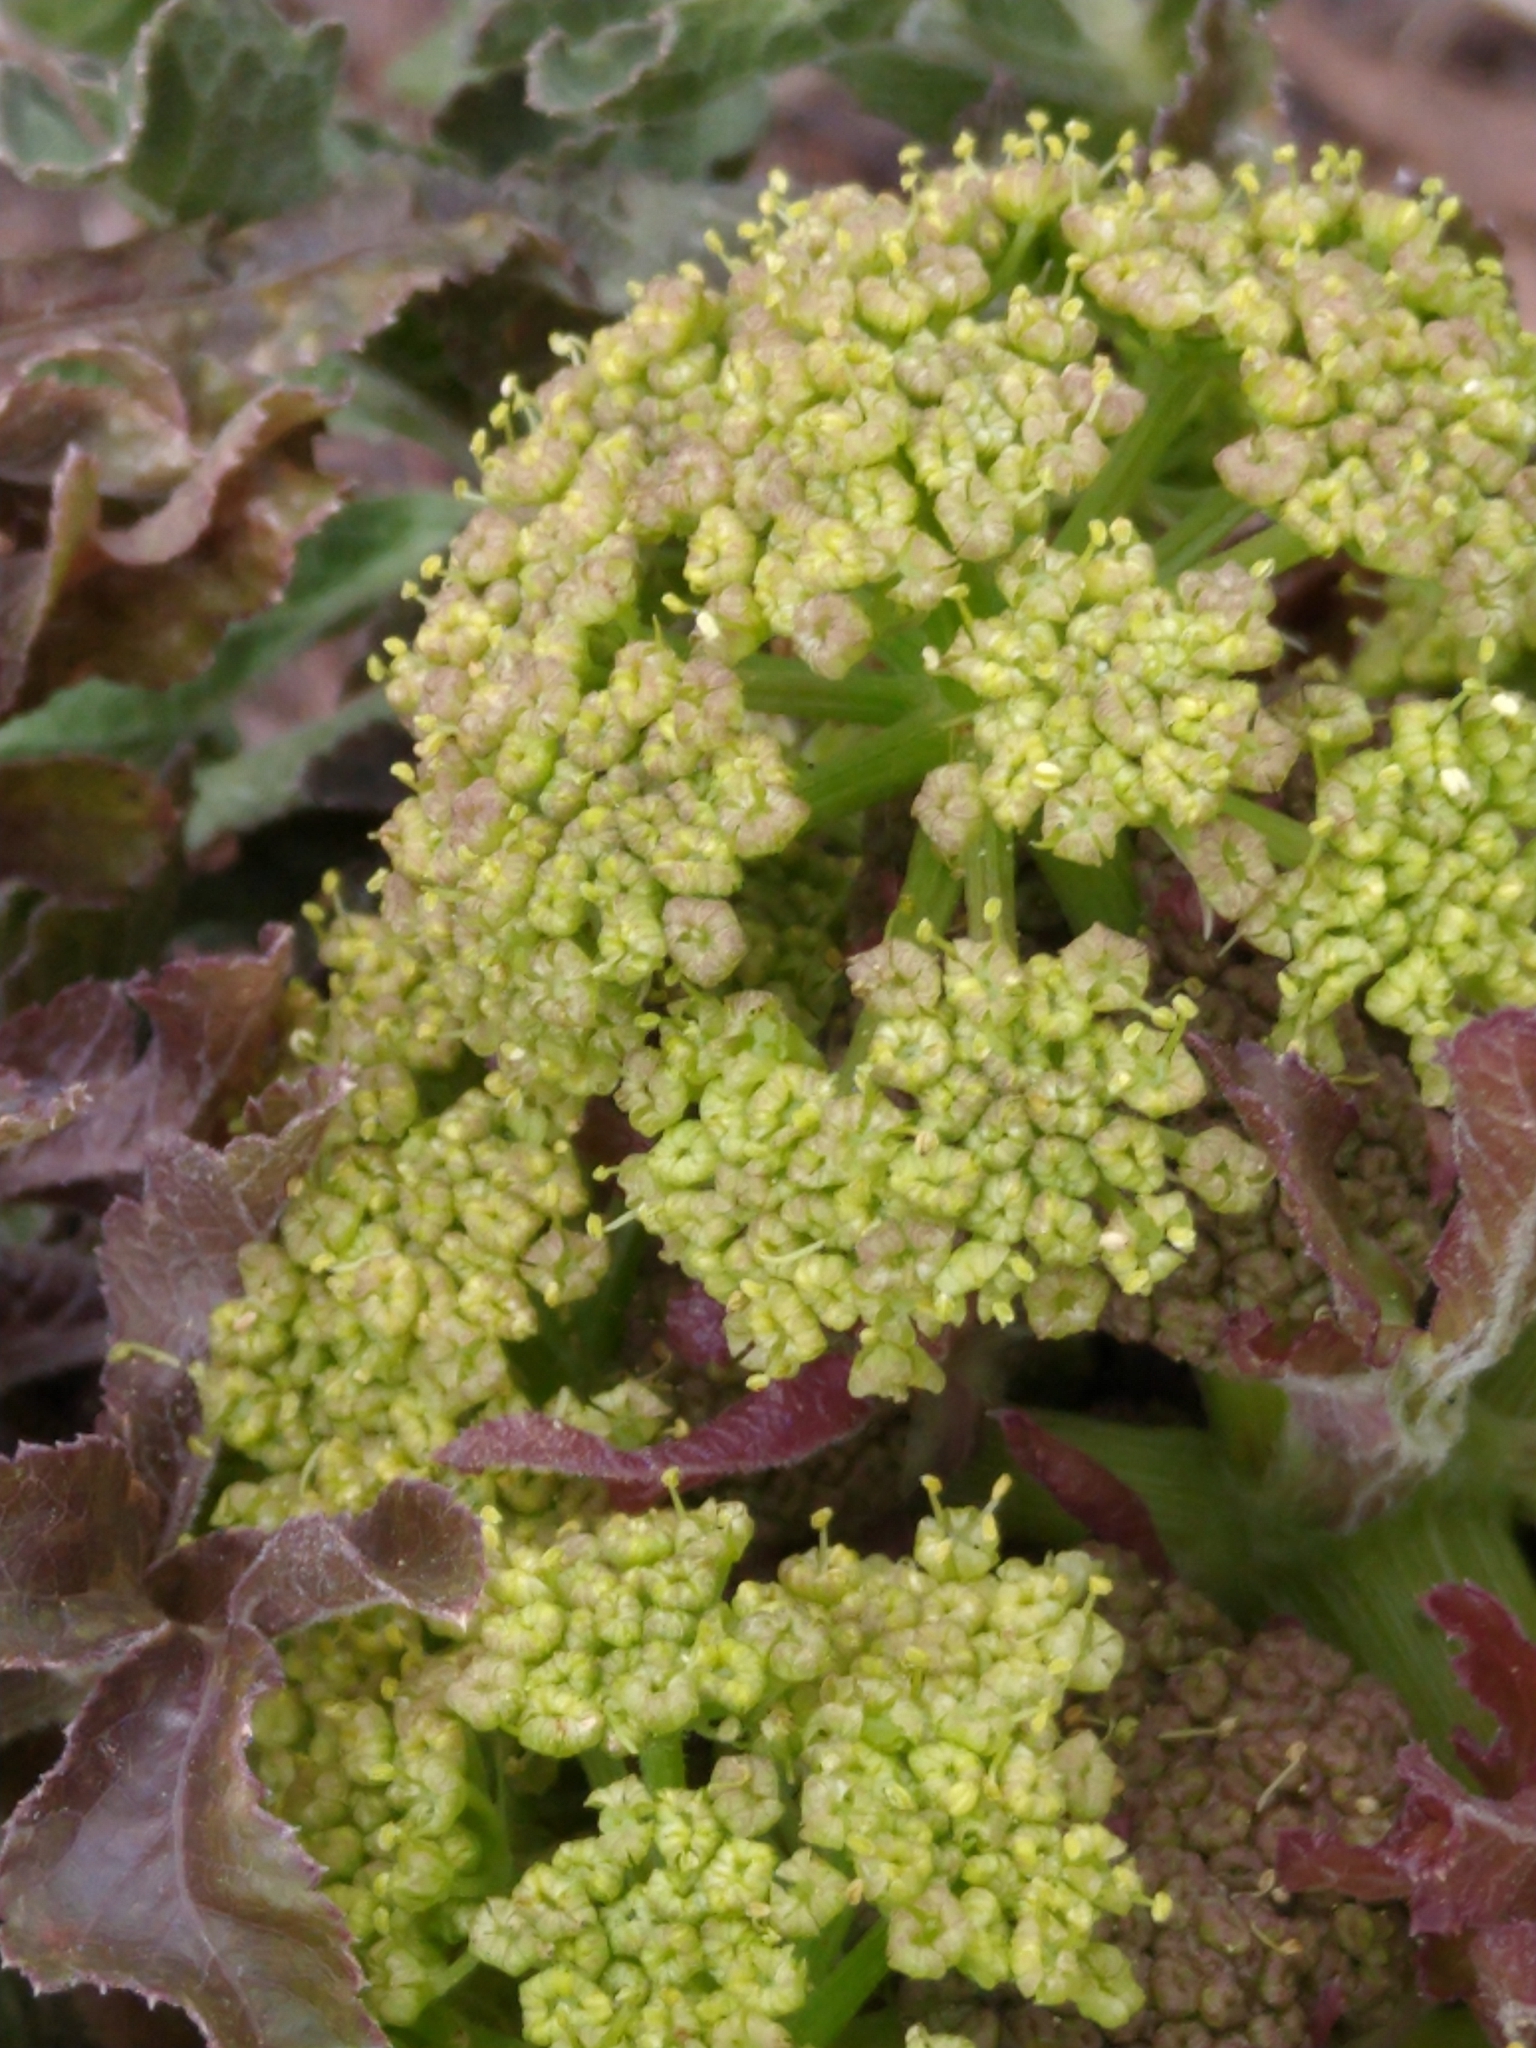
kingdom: Plantae
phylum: Tracheophyta
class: Magnoliopsida
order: Apiales
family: Apiaceae
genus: Prionosciadium
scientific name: Prionosciadium thapsoides
